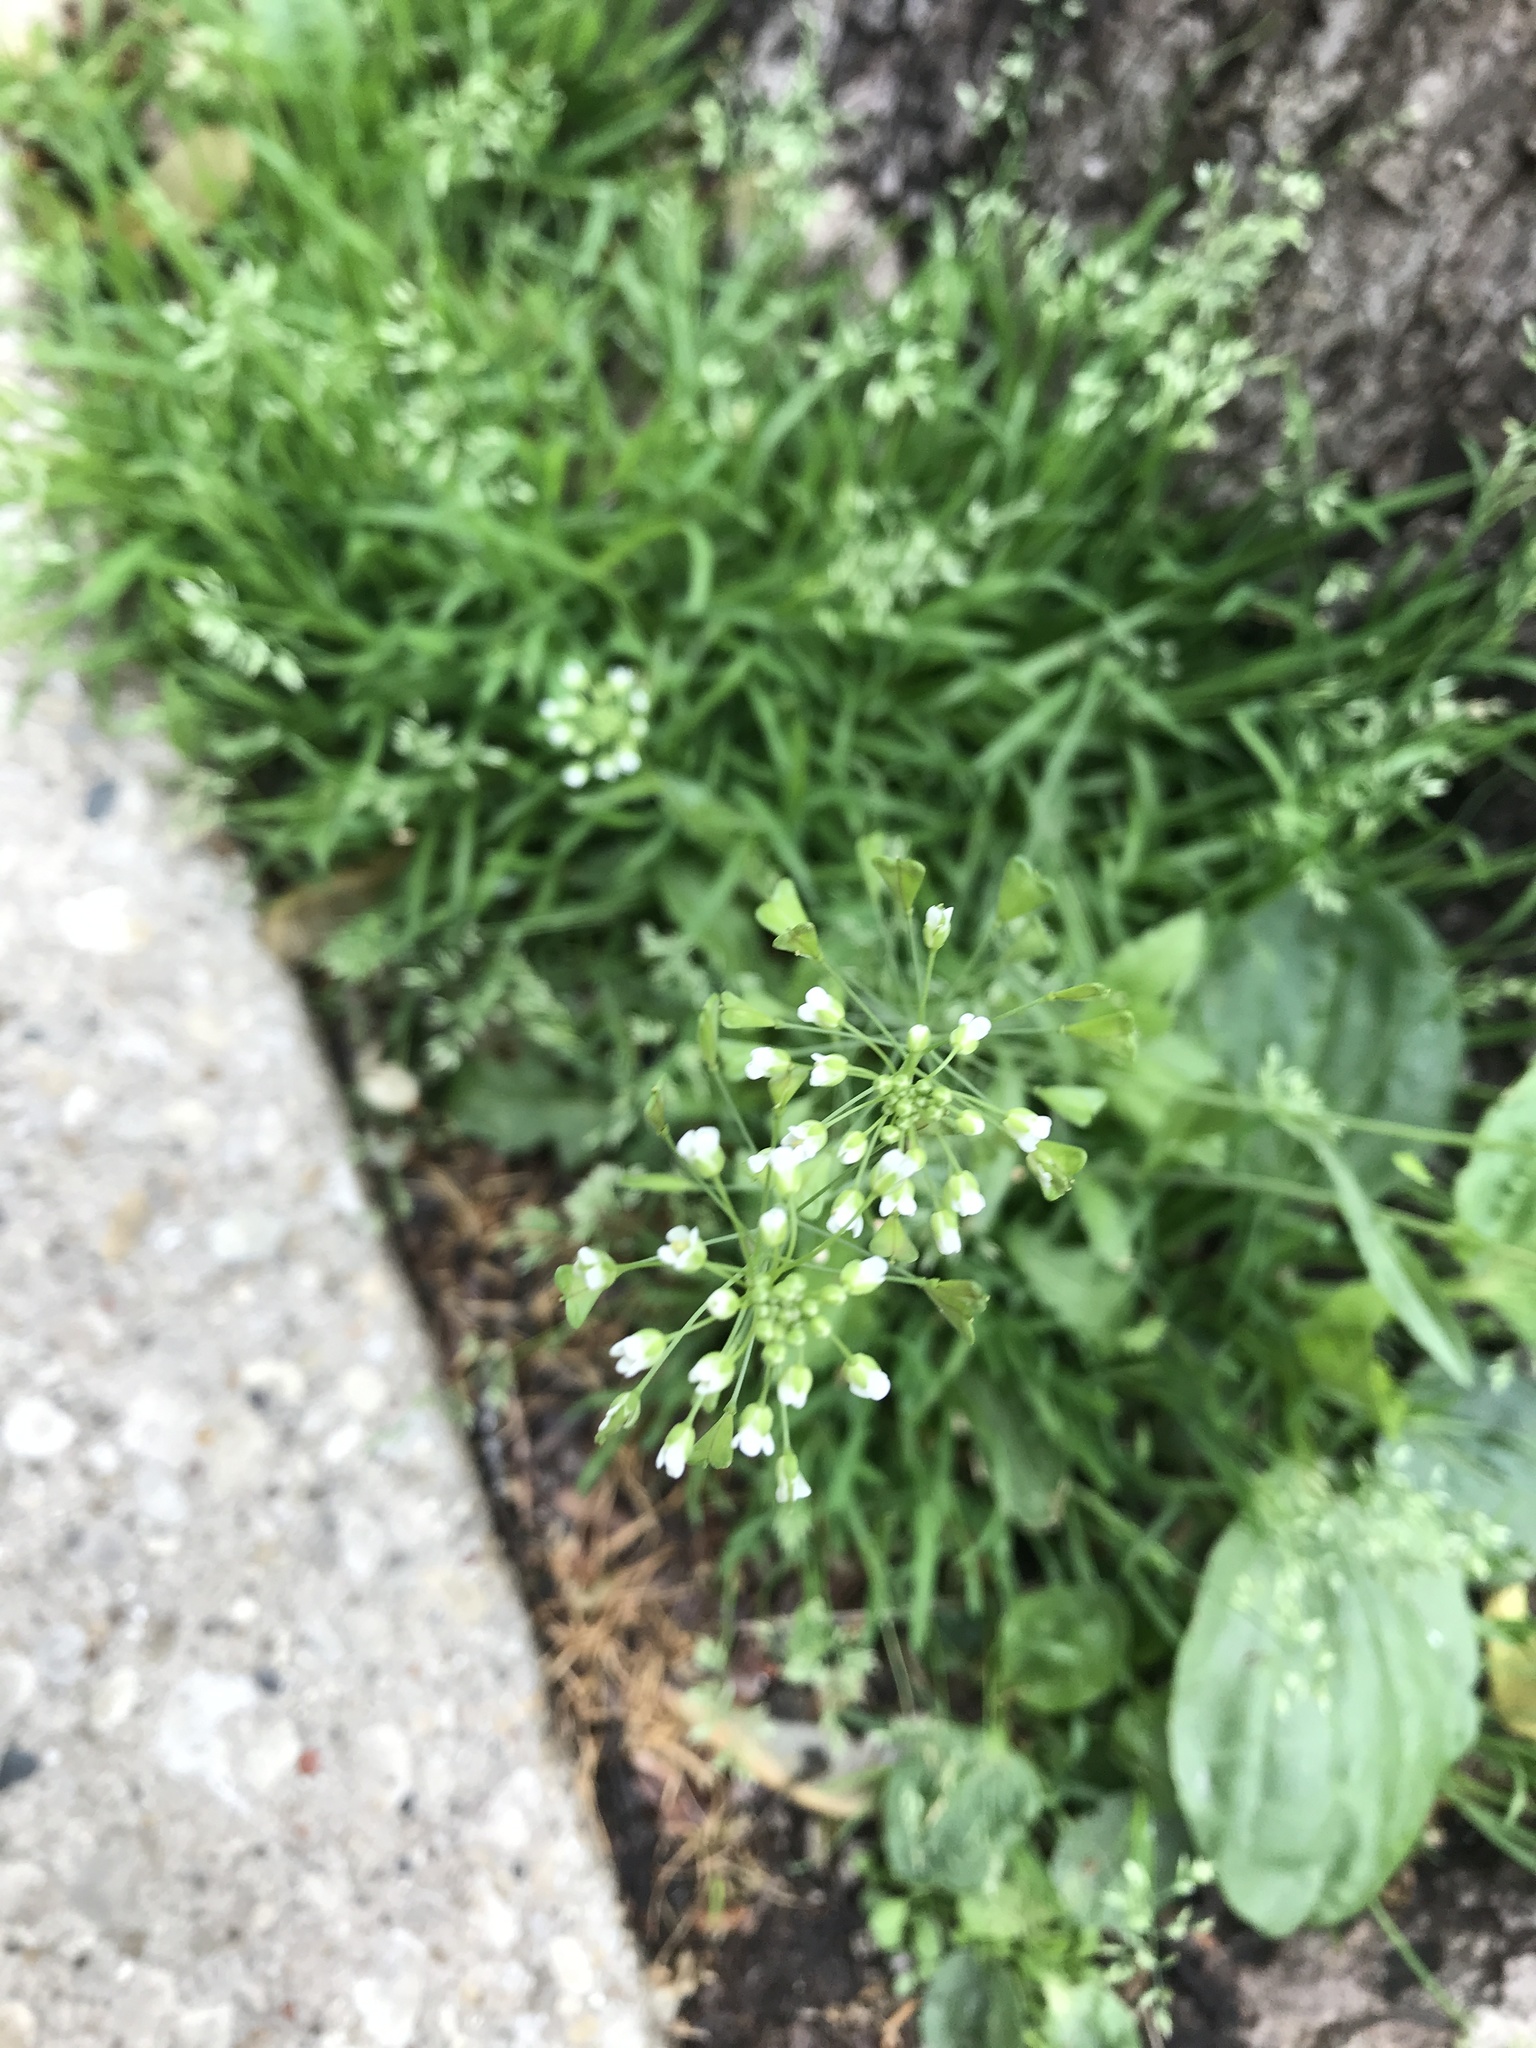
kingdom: Plantae
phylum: Tracheophyta
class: Magnoliopsida
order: Brassicales
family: Brassicaceae
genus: Capsella
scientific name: Capsella bursa-pastoris
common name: Shepherd's purse
